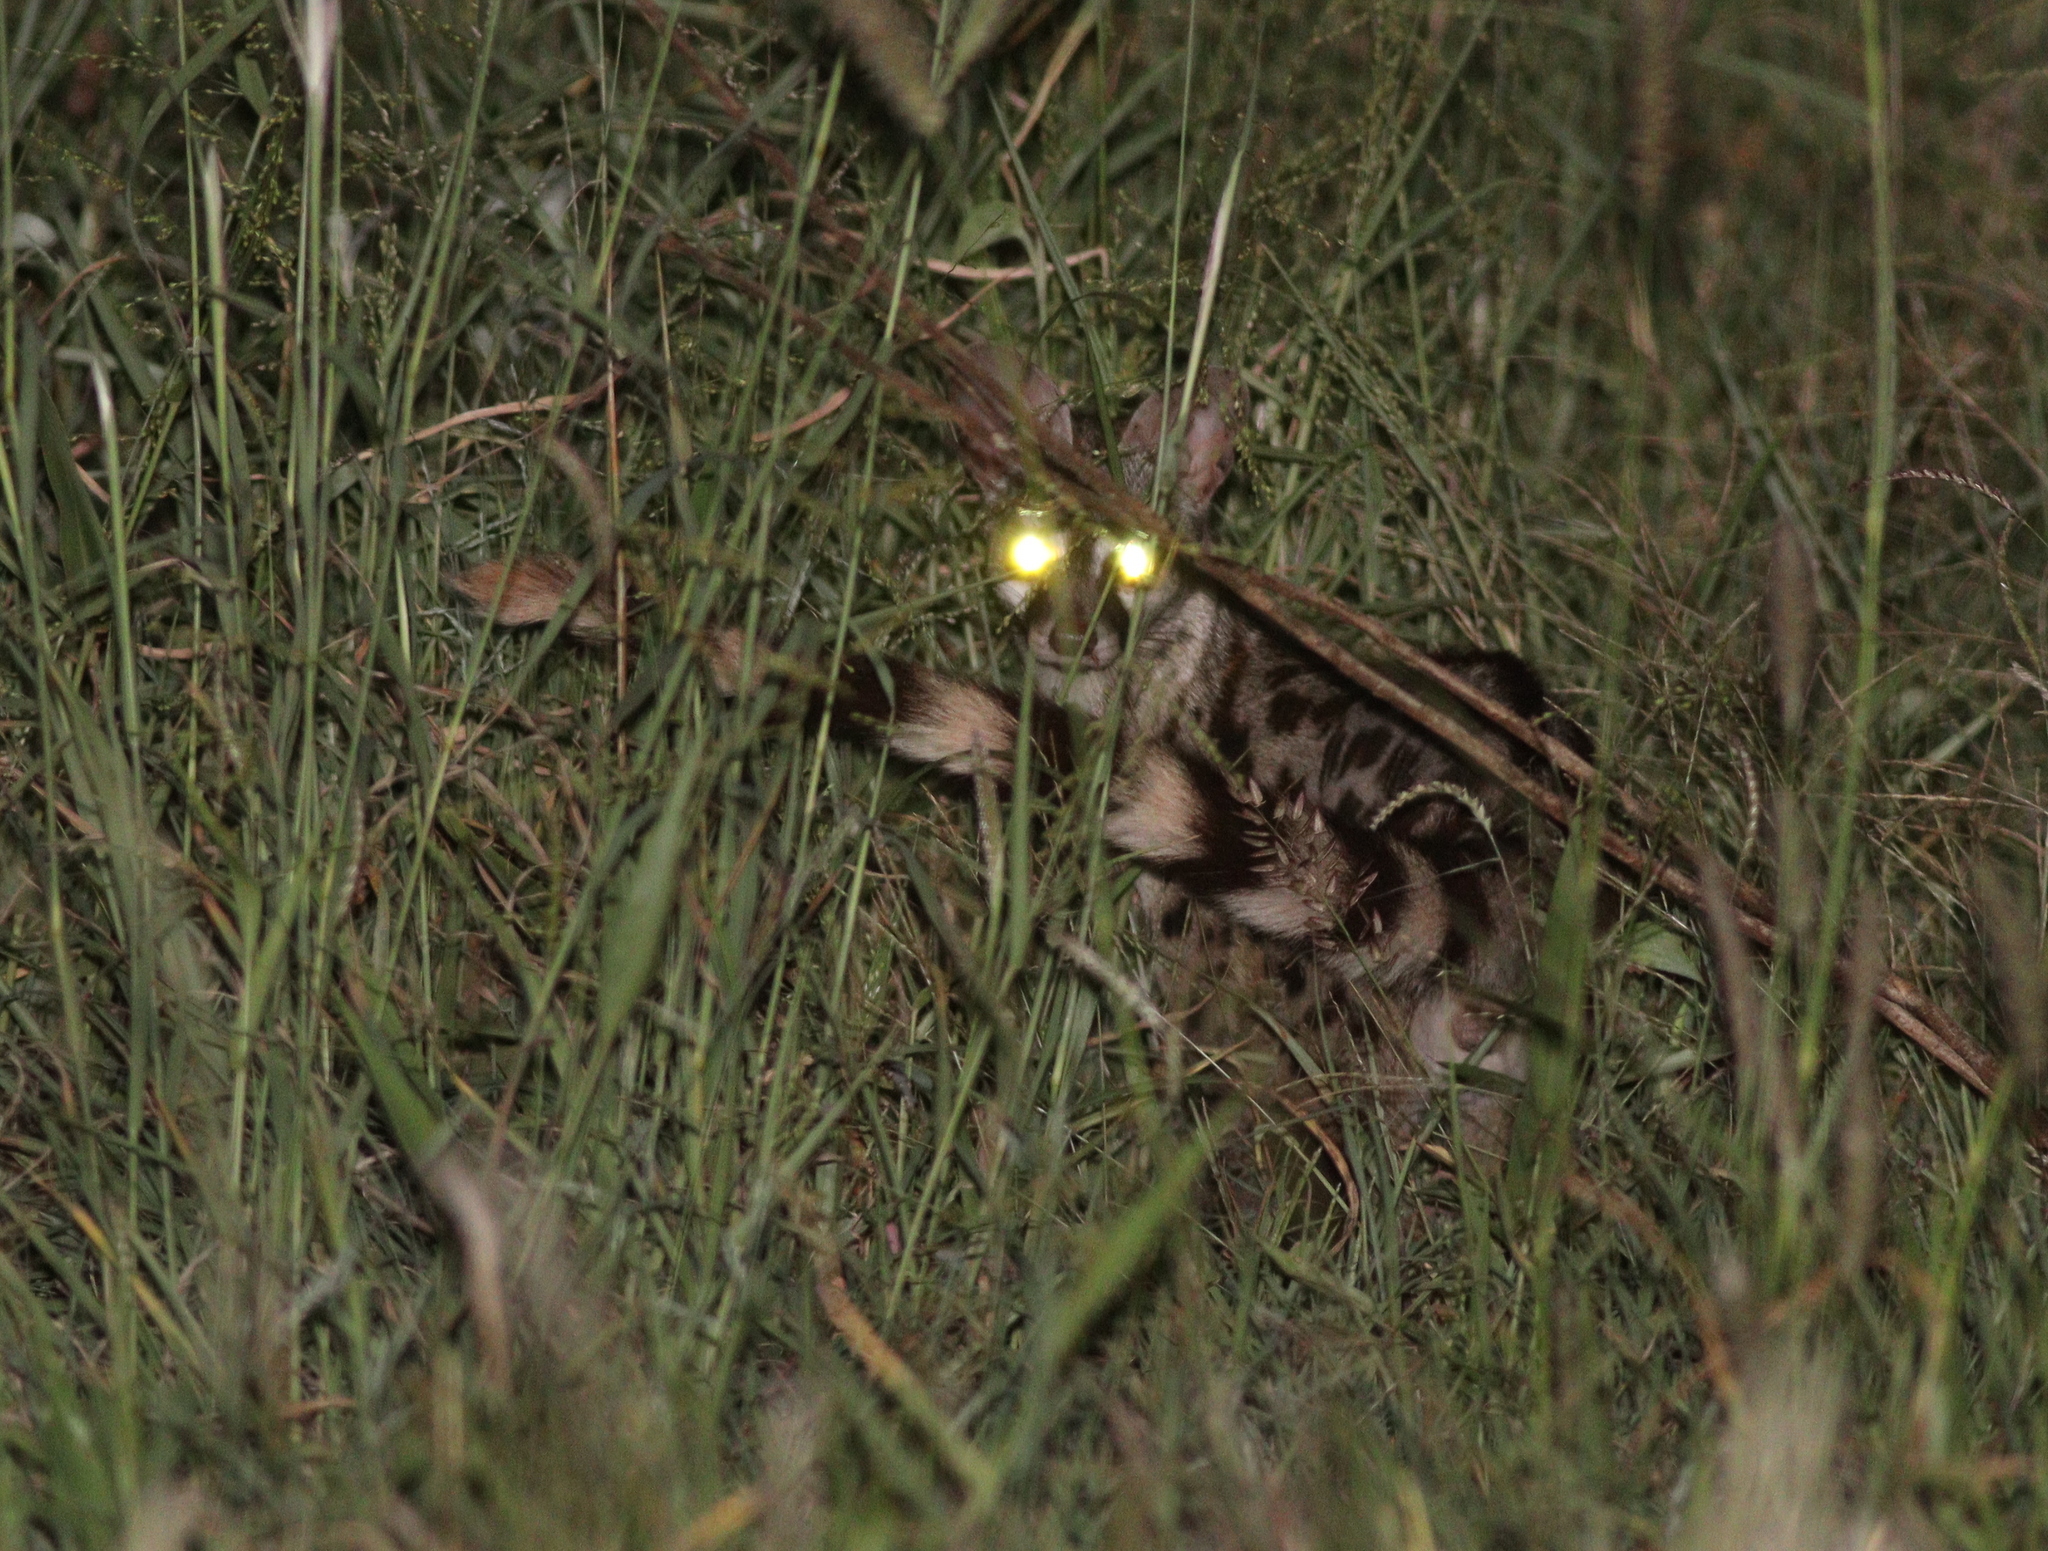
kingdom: Animalia
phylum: Chordata
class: Mammalia
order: Carnivora
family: Viverridae
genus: Genetta
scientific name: Genetta genetta
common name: Common genet
